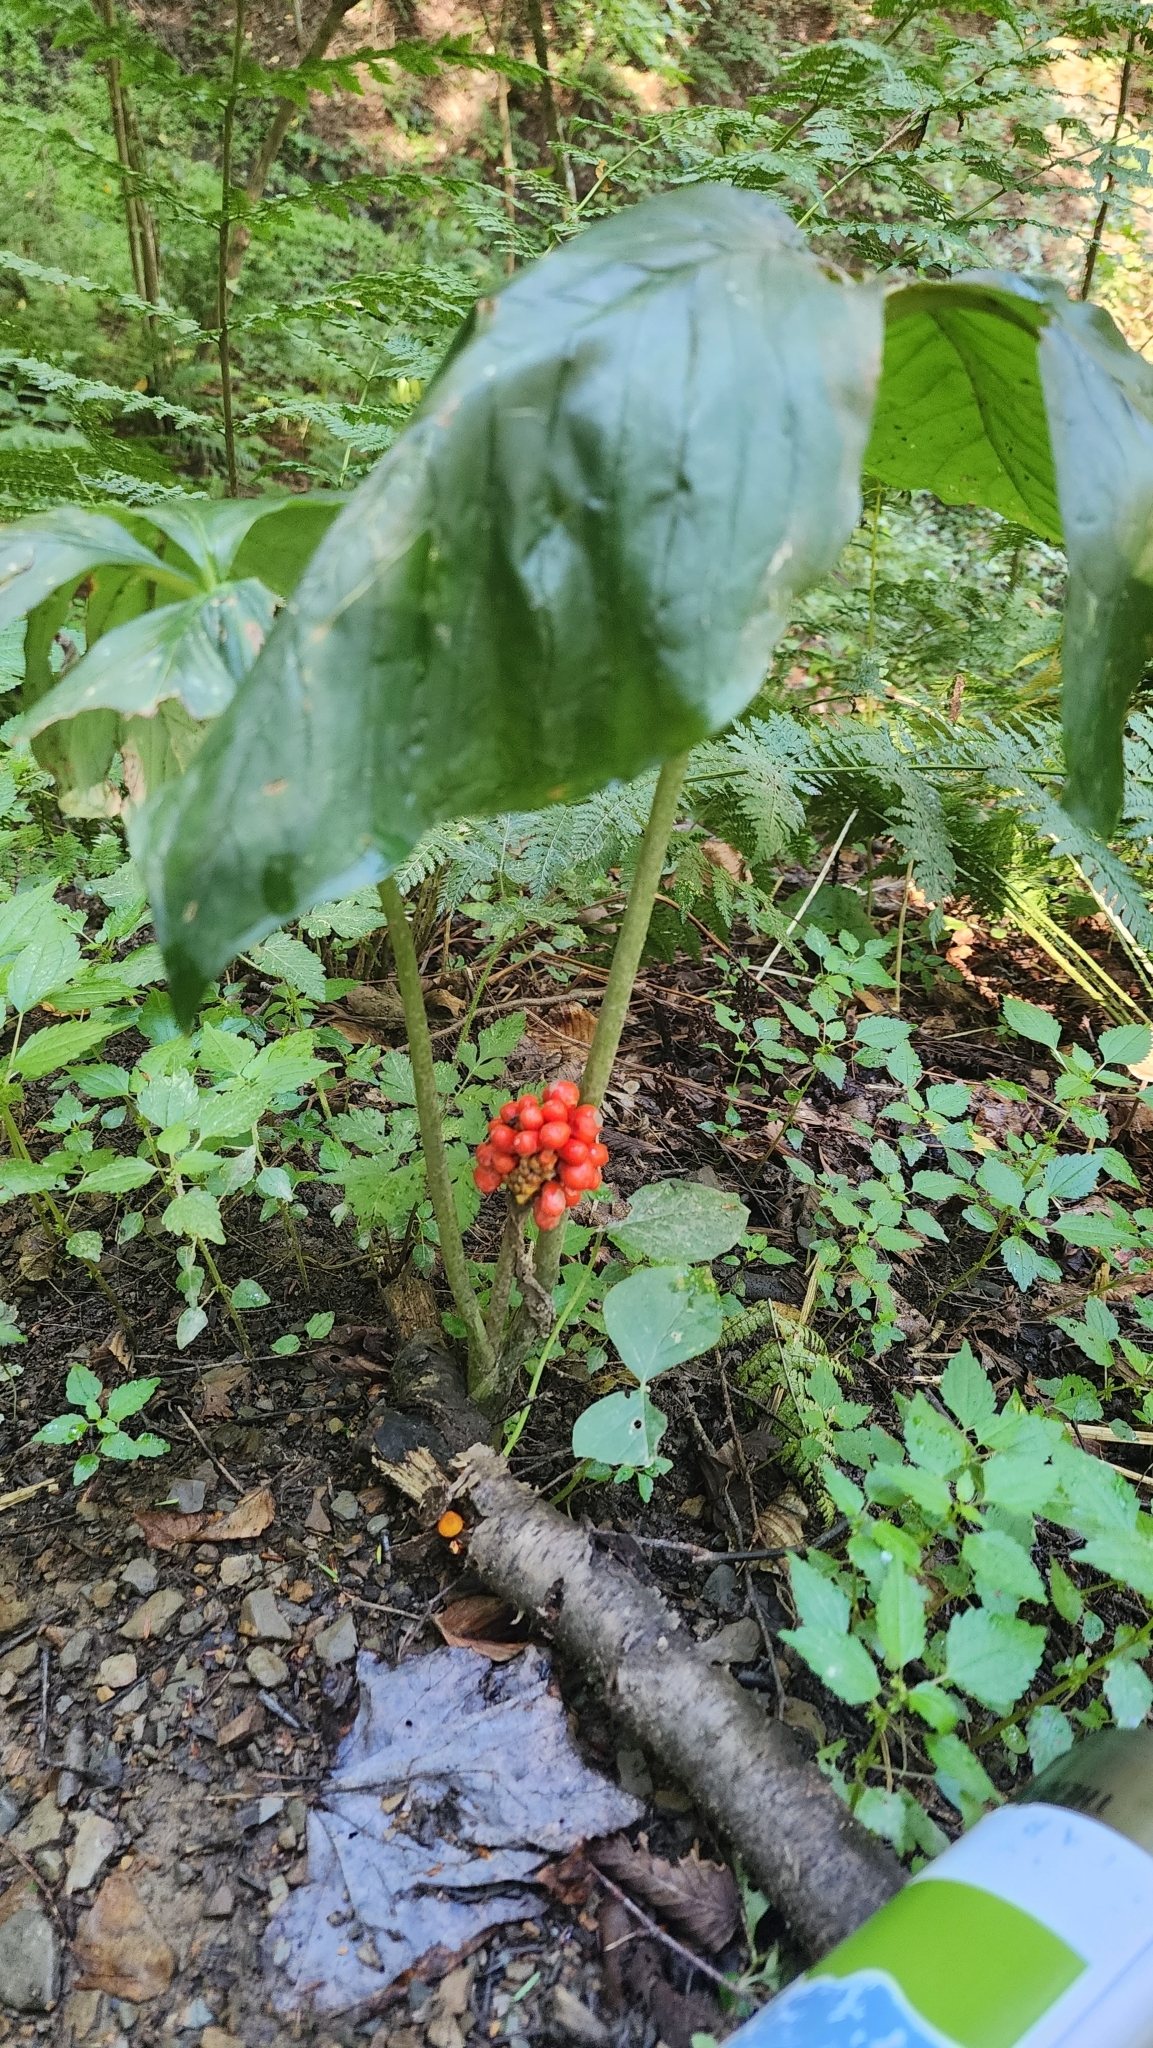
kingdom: Plantae
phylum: Tracheophyta
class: Liliopsida
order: Alismatales
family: Araceae
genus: Arisaema
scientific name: Arisaema triphyllum
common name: Jack-in-the-pulpit
